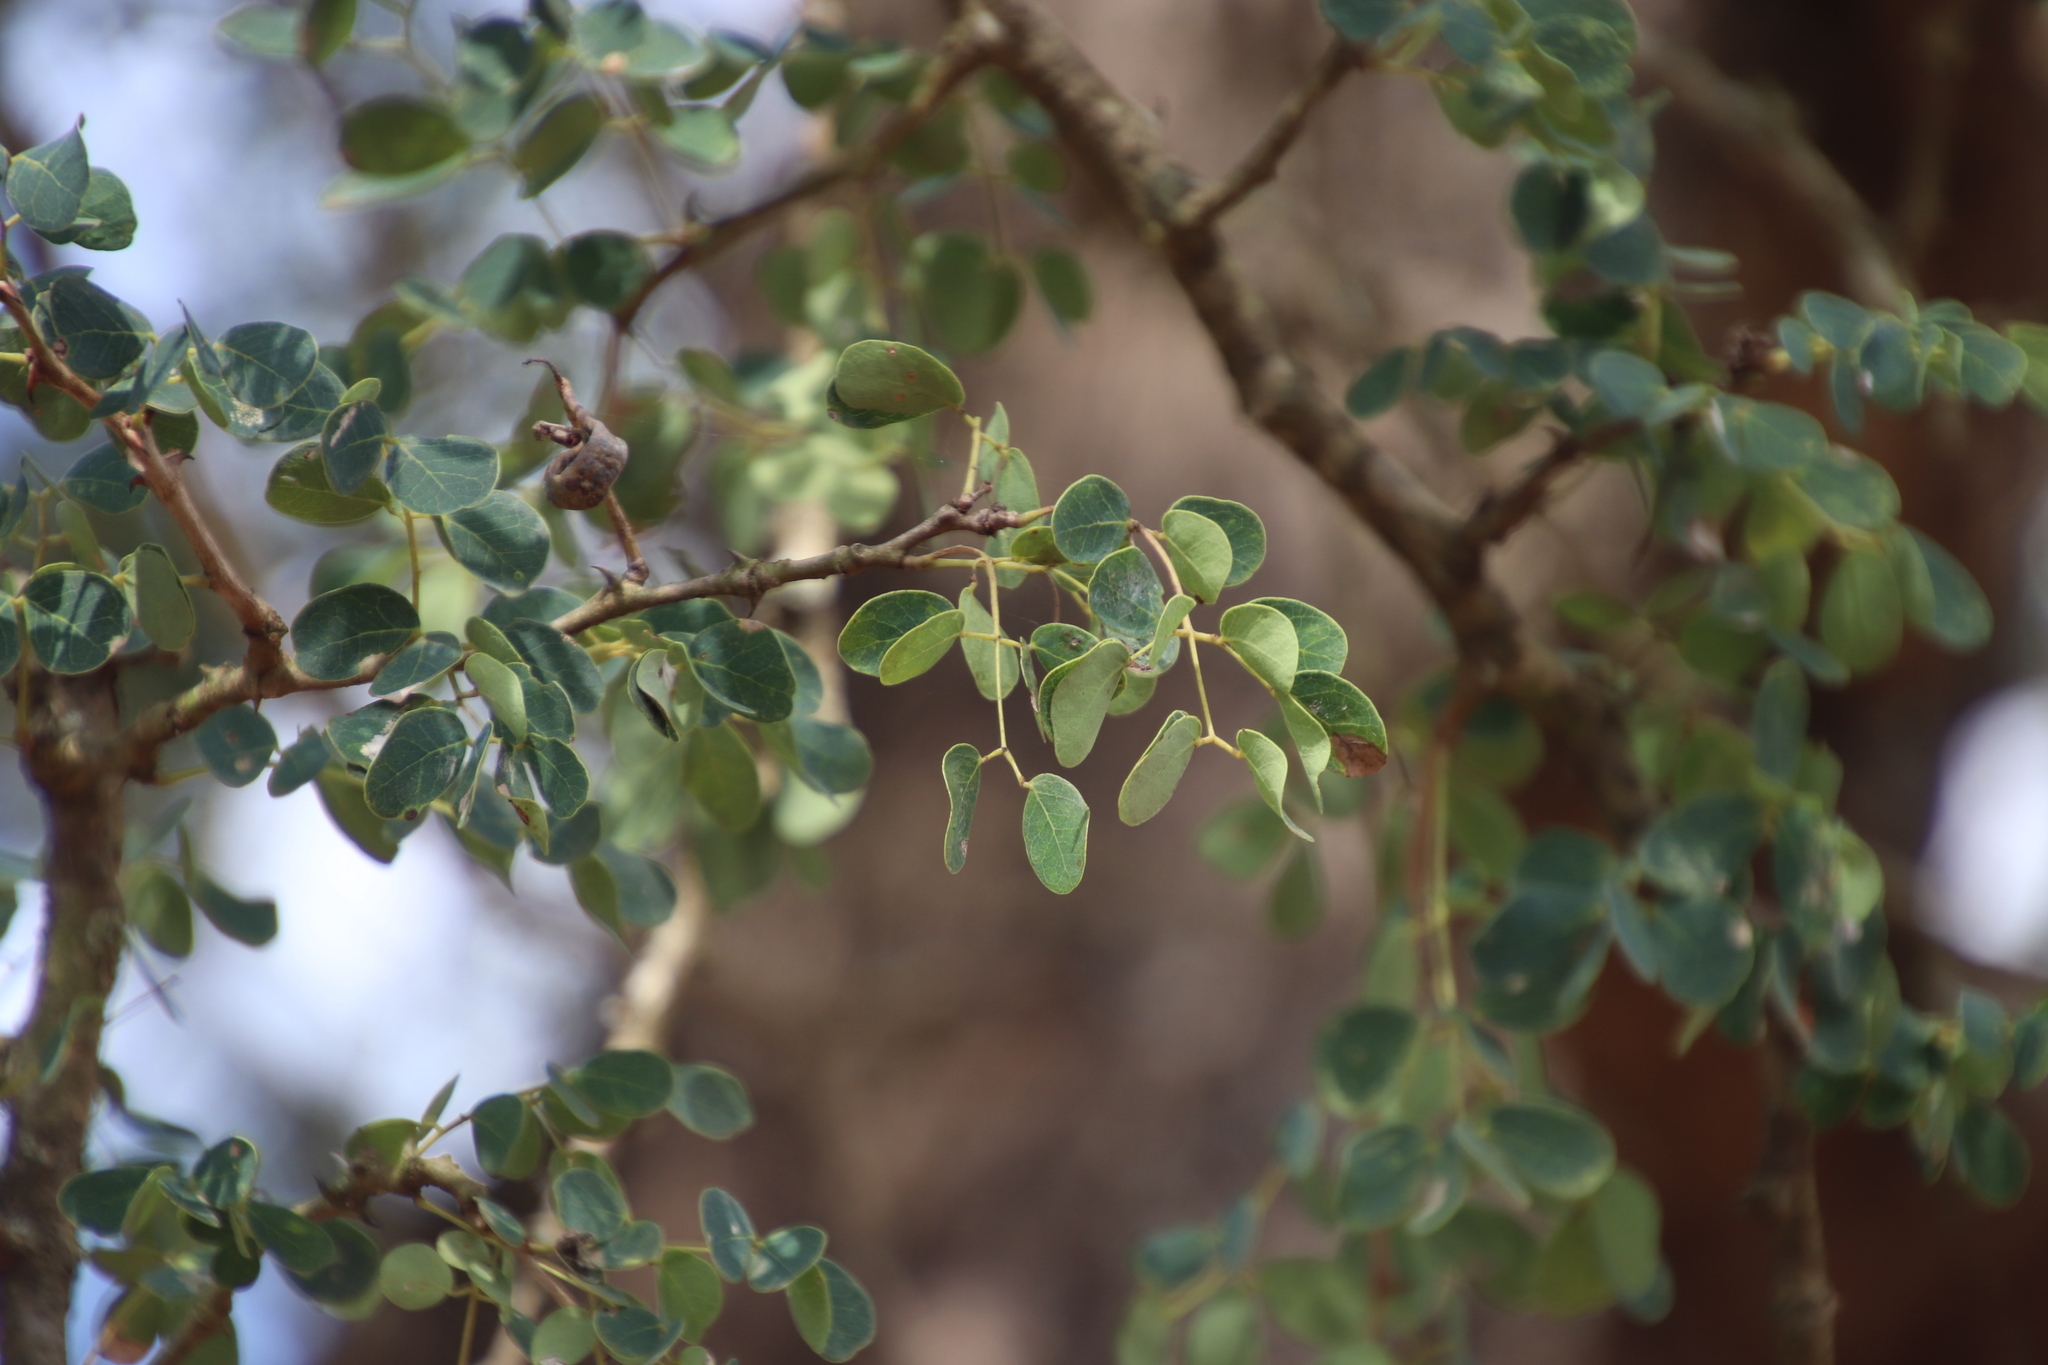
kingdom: Plantae
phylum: Tracheophyta
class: Magnoliopsida
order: Fabales
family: Fabaceae
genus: Senegalia
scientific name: Senegalia nigrescens
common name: Knobthorn
